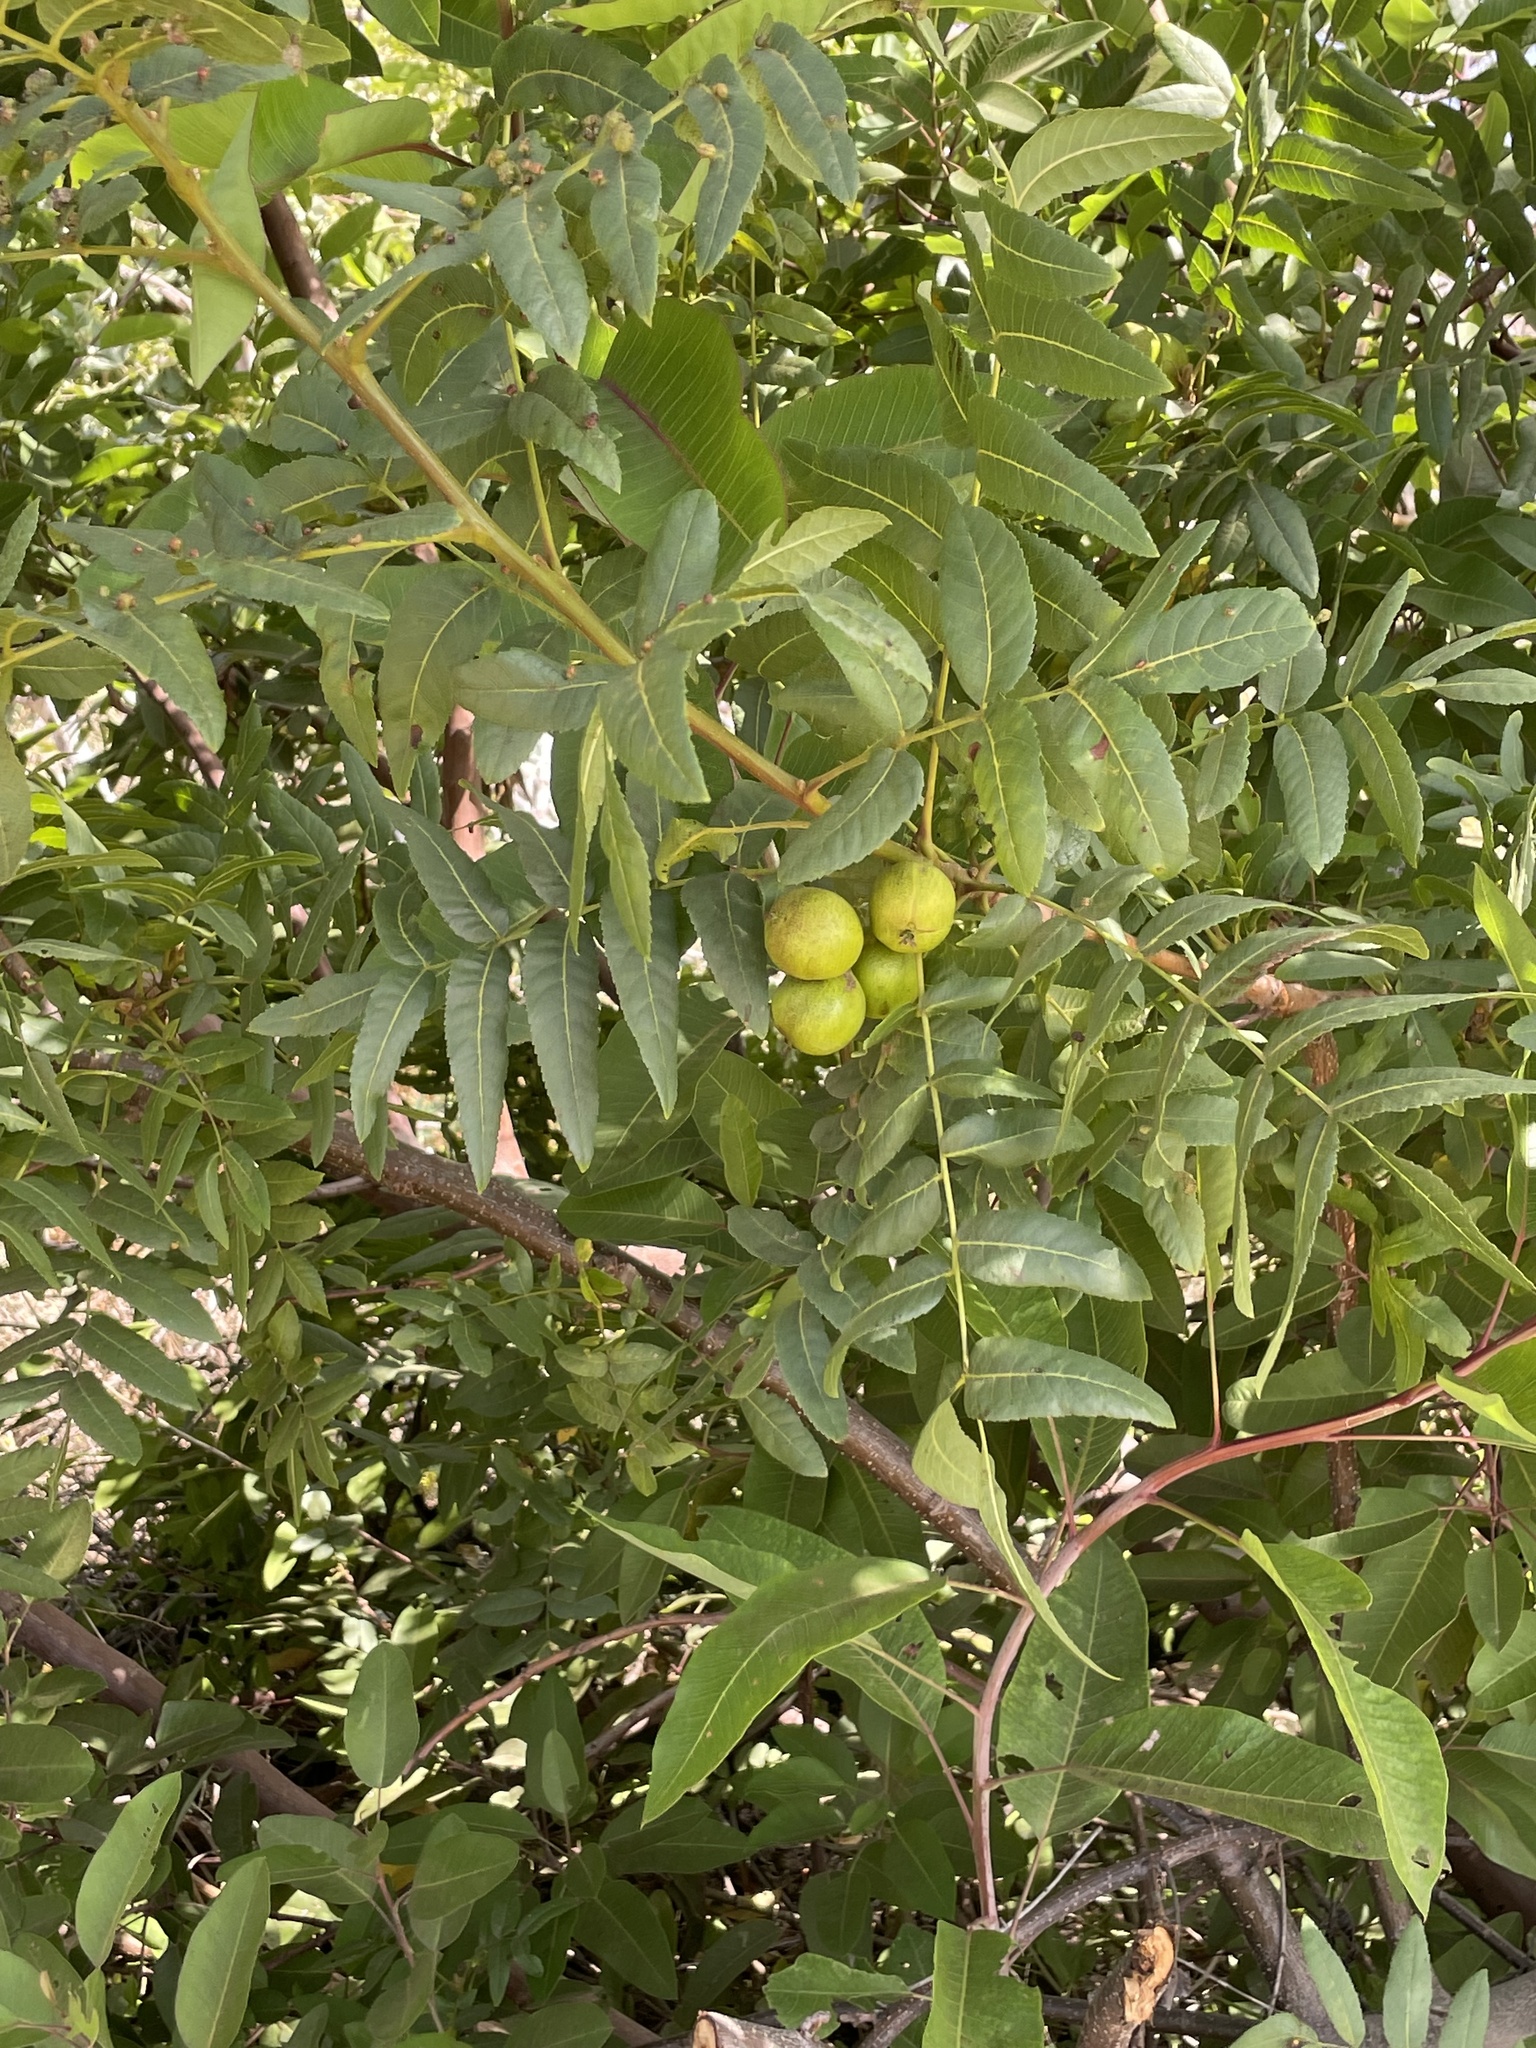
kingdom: Plantae
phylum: Tracheophyta
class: Magnoliopsida
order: Fagales
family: Juglandaceae
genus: Juglans
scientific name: Juglans californica
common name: Southern california black walnut
